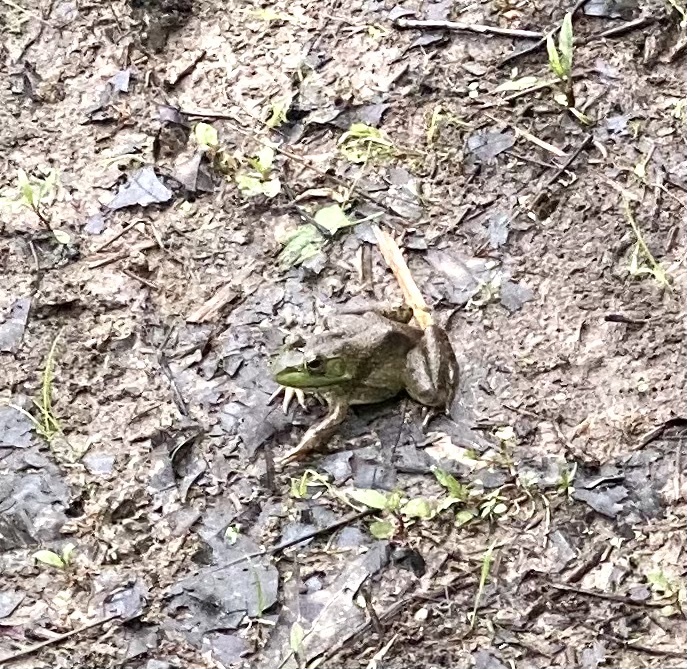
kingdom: Animalia
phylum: Chordata
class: Amphibia
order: Anura
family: Ranidae
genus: Lithobates
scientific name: Lithobates catesbeianus
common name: American bullfrog
